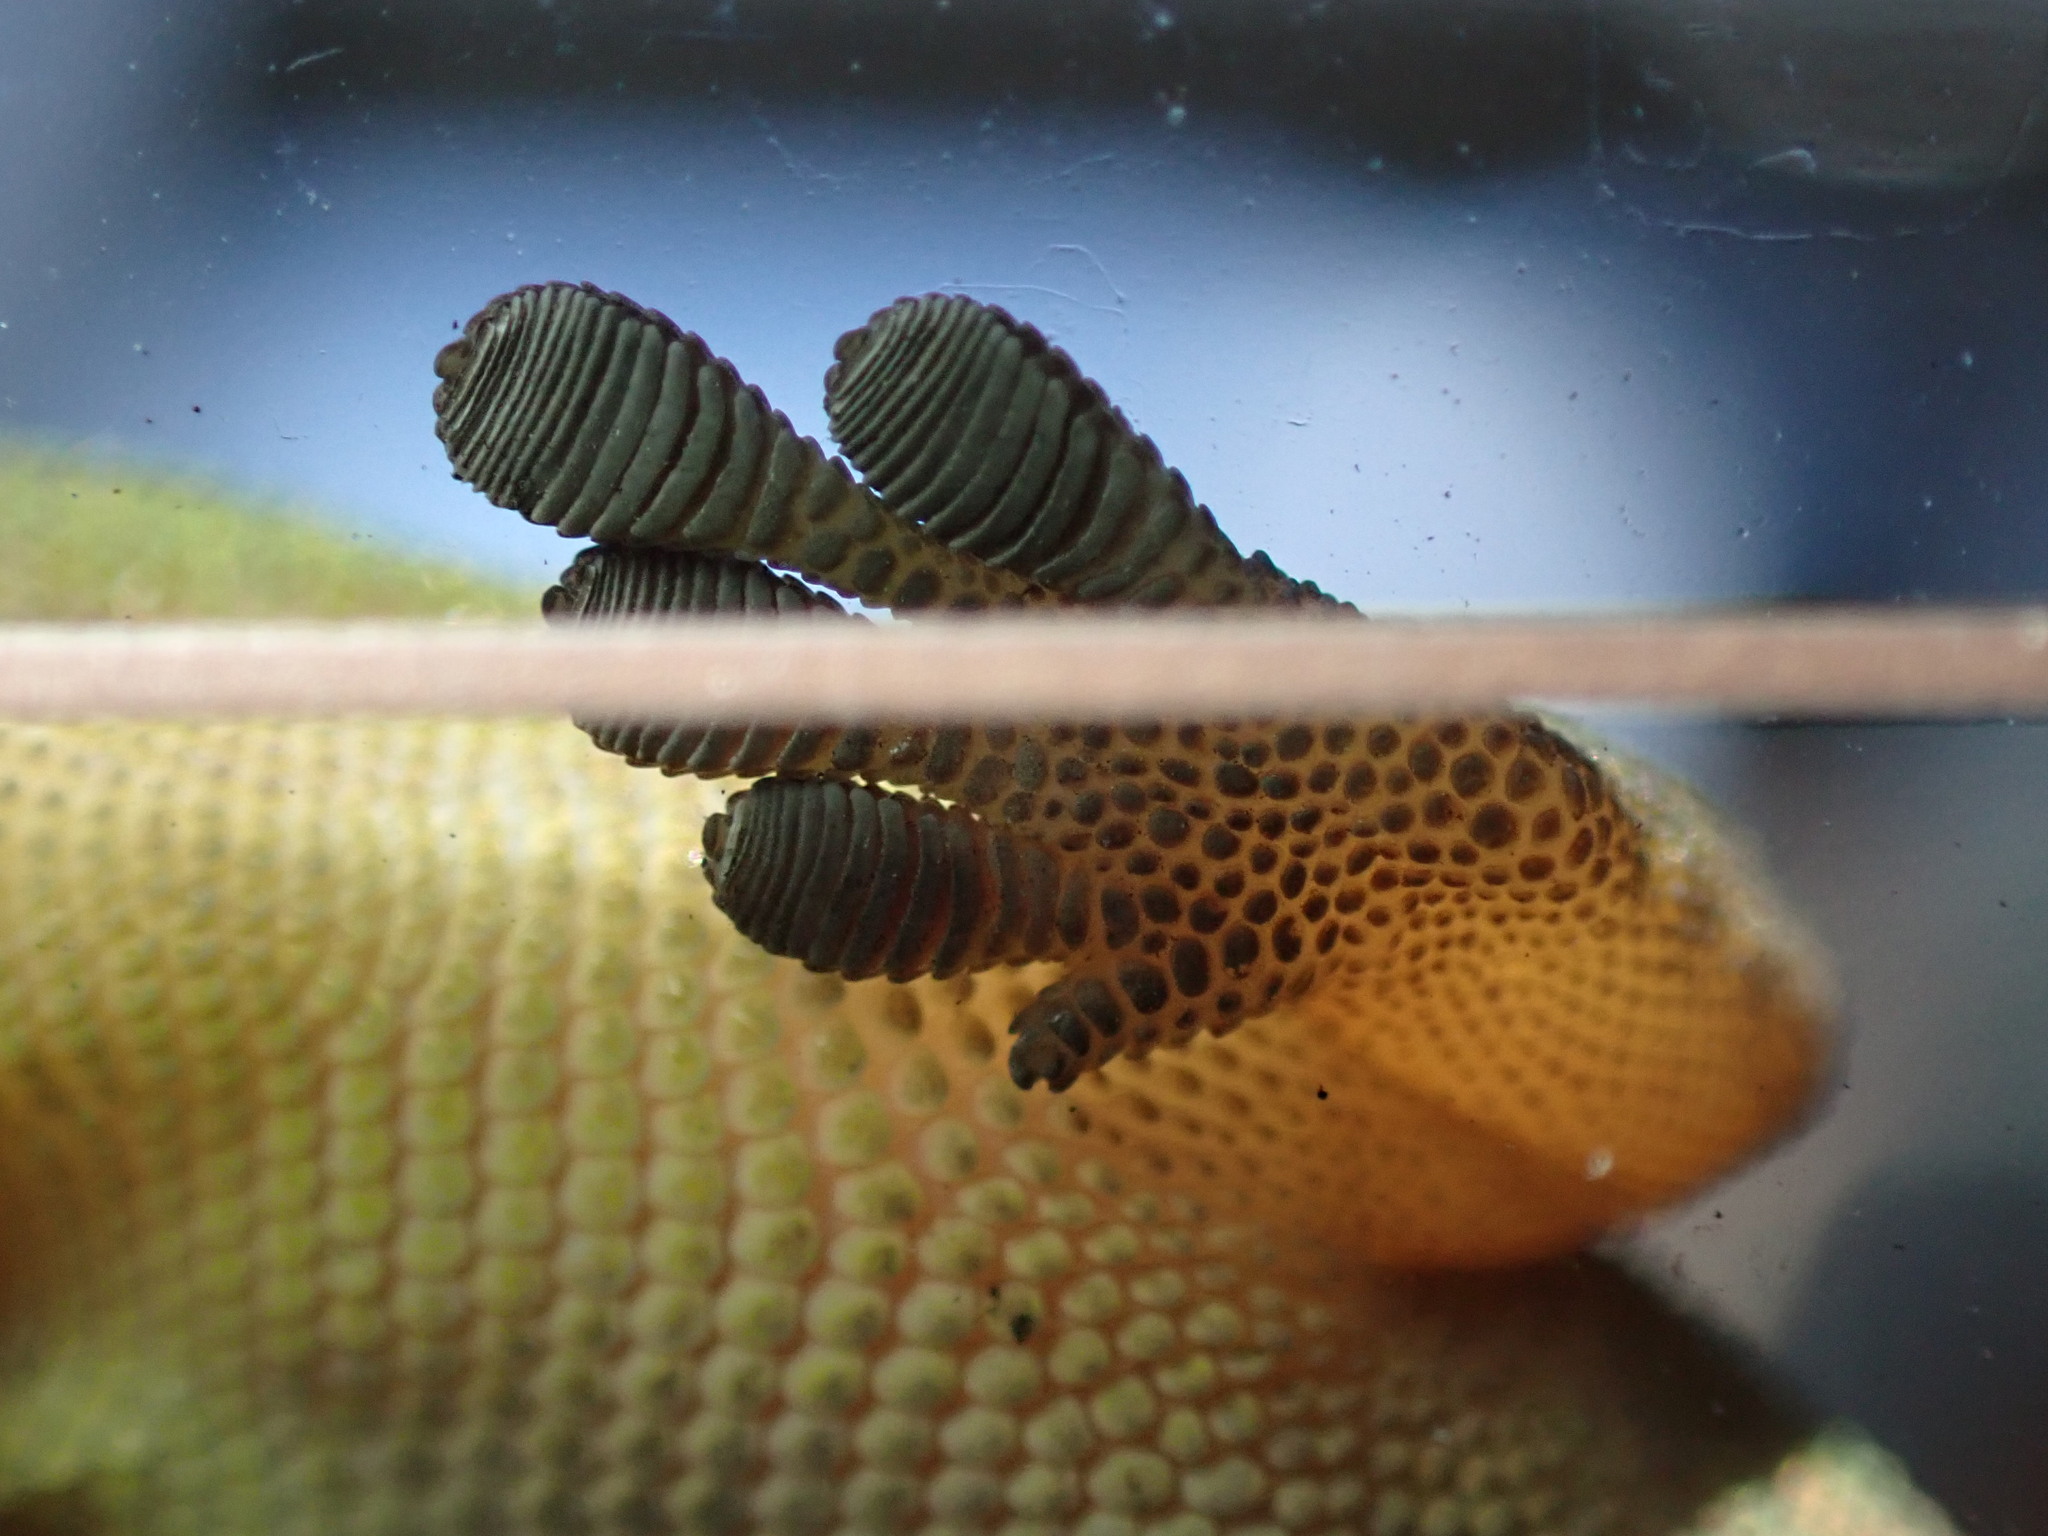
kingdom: Animalia
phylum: Chordata
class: Squamata
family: Gekkonidae
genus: Phelsuma
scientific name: Phelsuma laticauda
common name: Gold dust day gecko
